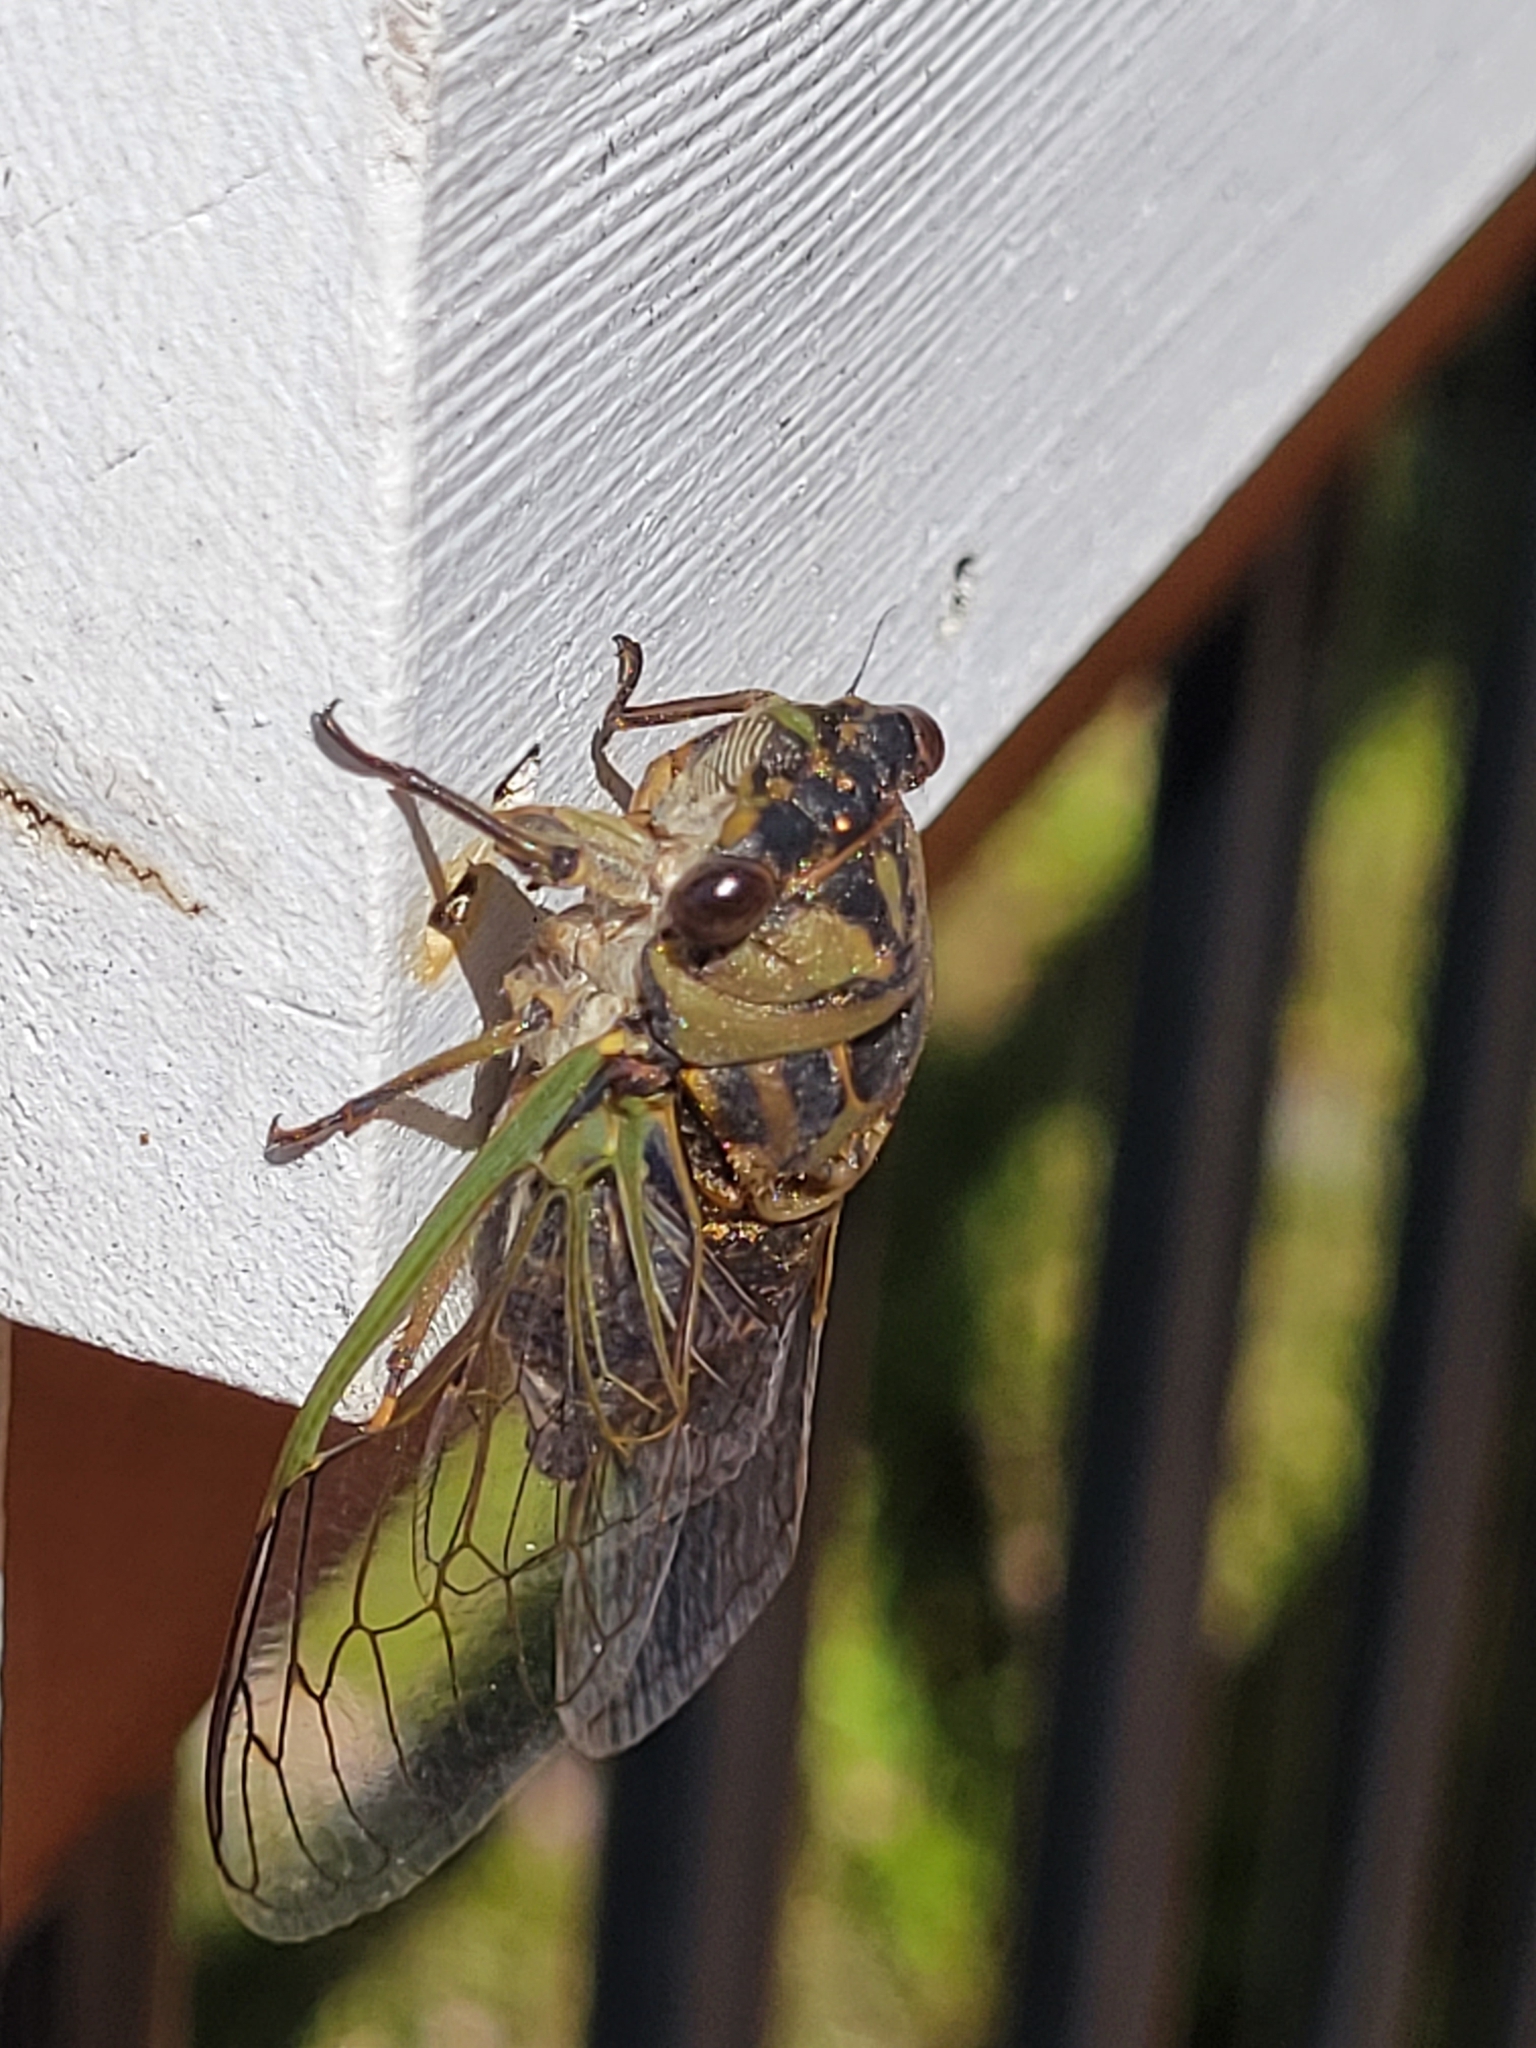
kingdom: Animalia
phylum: Arthropoda
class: Insecta
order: Hemiptera
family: Cicadidae
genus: Neotibicen
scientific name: Neotibicen canicularis
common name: God-day cicada
